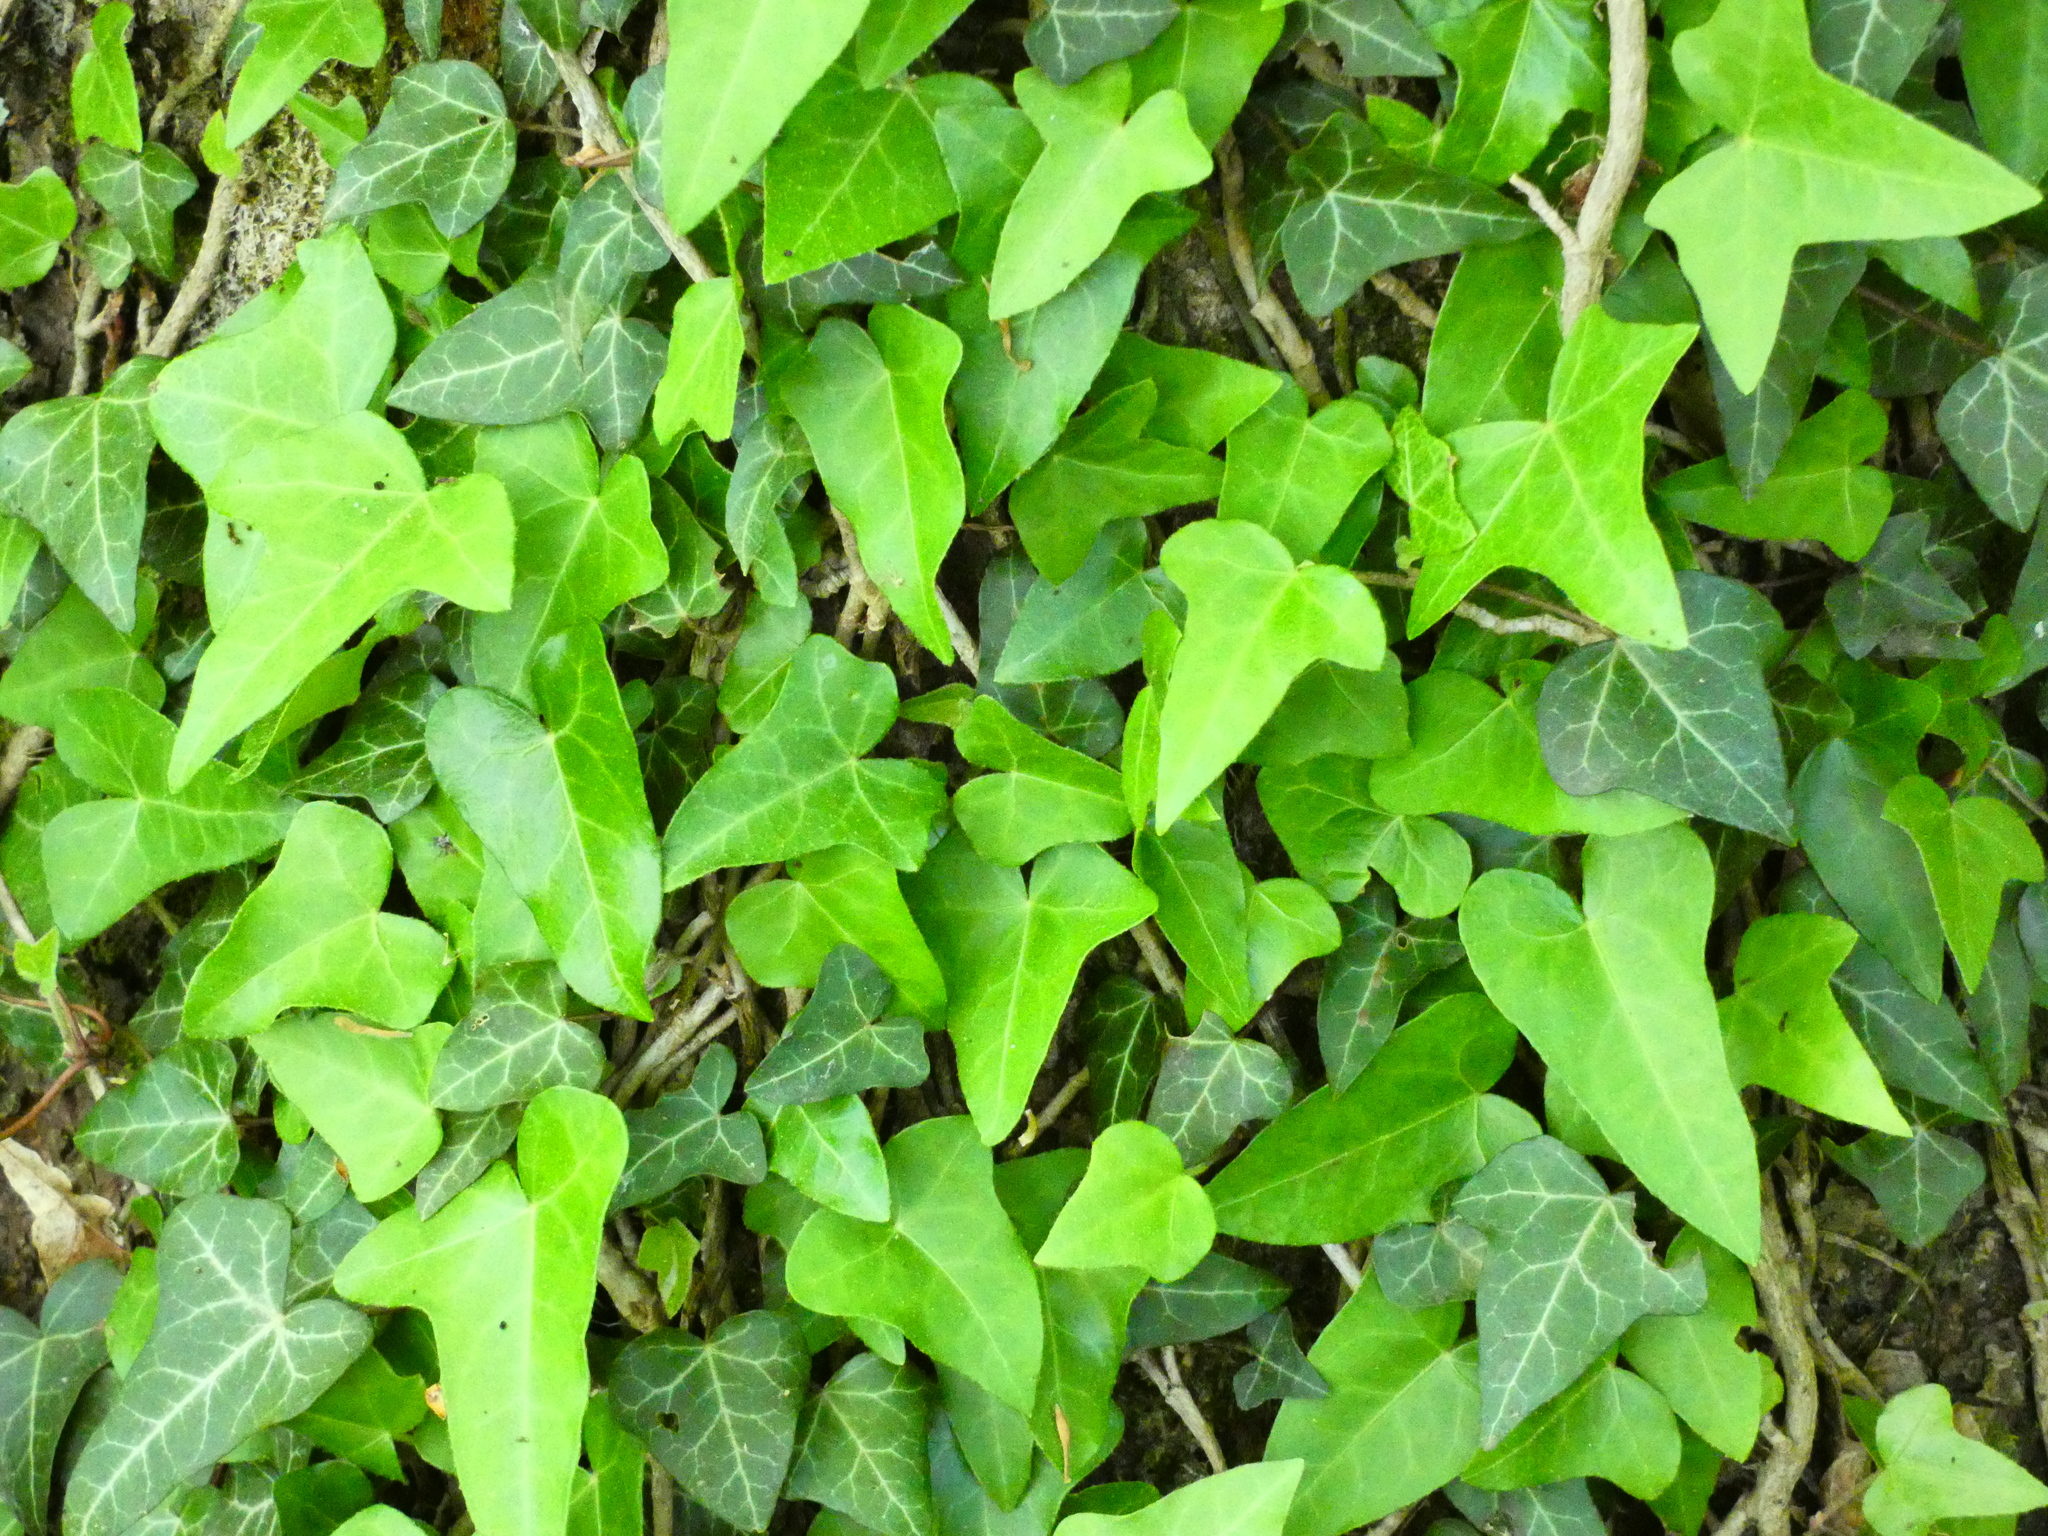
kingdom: Plantae
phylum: Tracheophyta
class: Magnoliopsida
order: Apiales
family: Araliaceae
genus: Hedera
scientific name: Hedera helix
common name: Ivy
